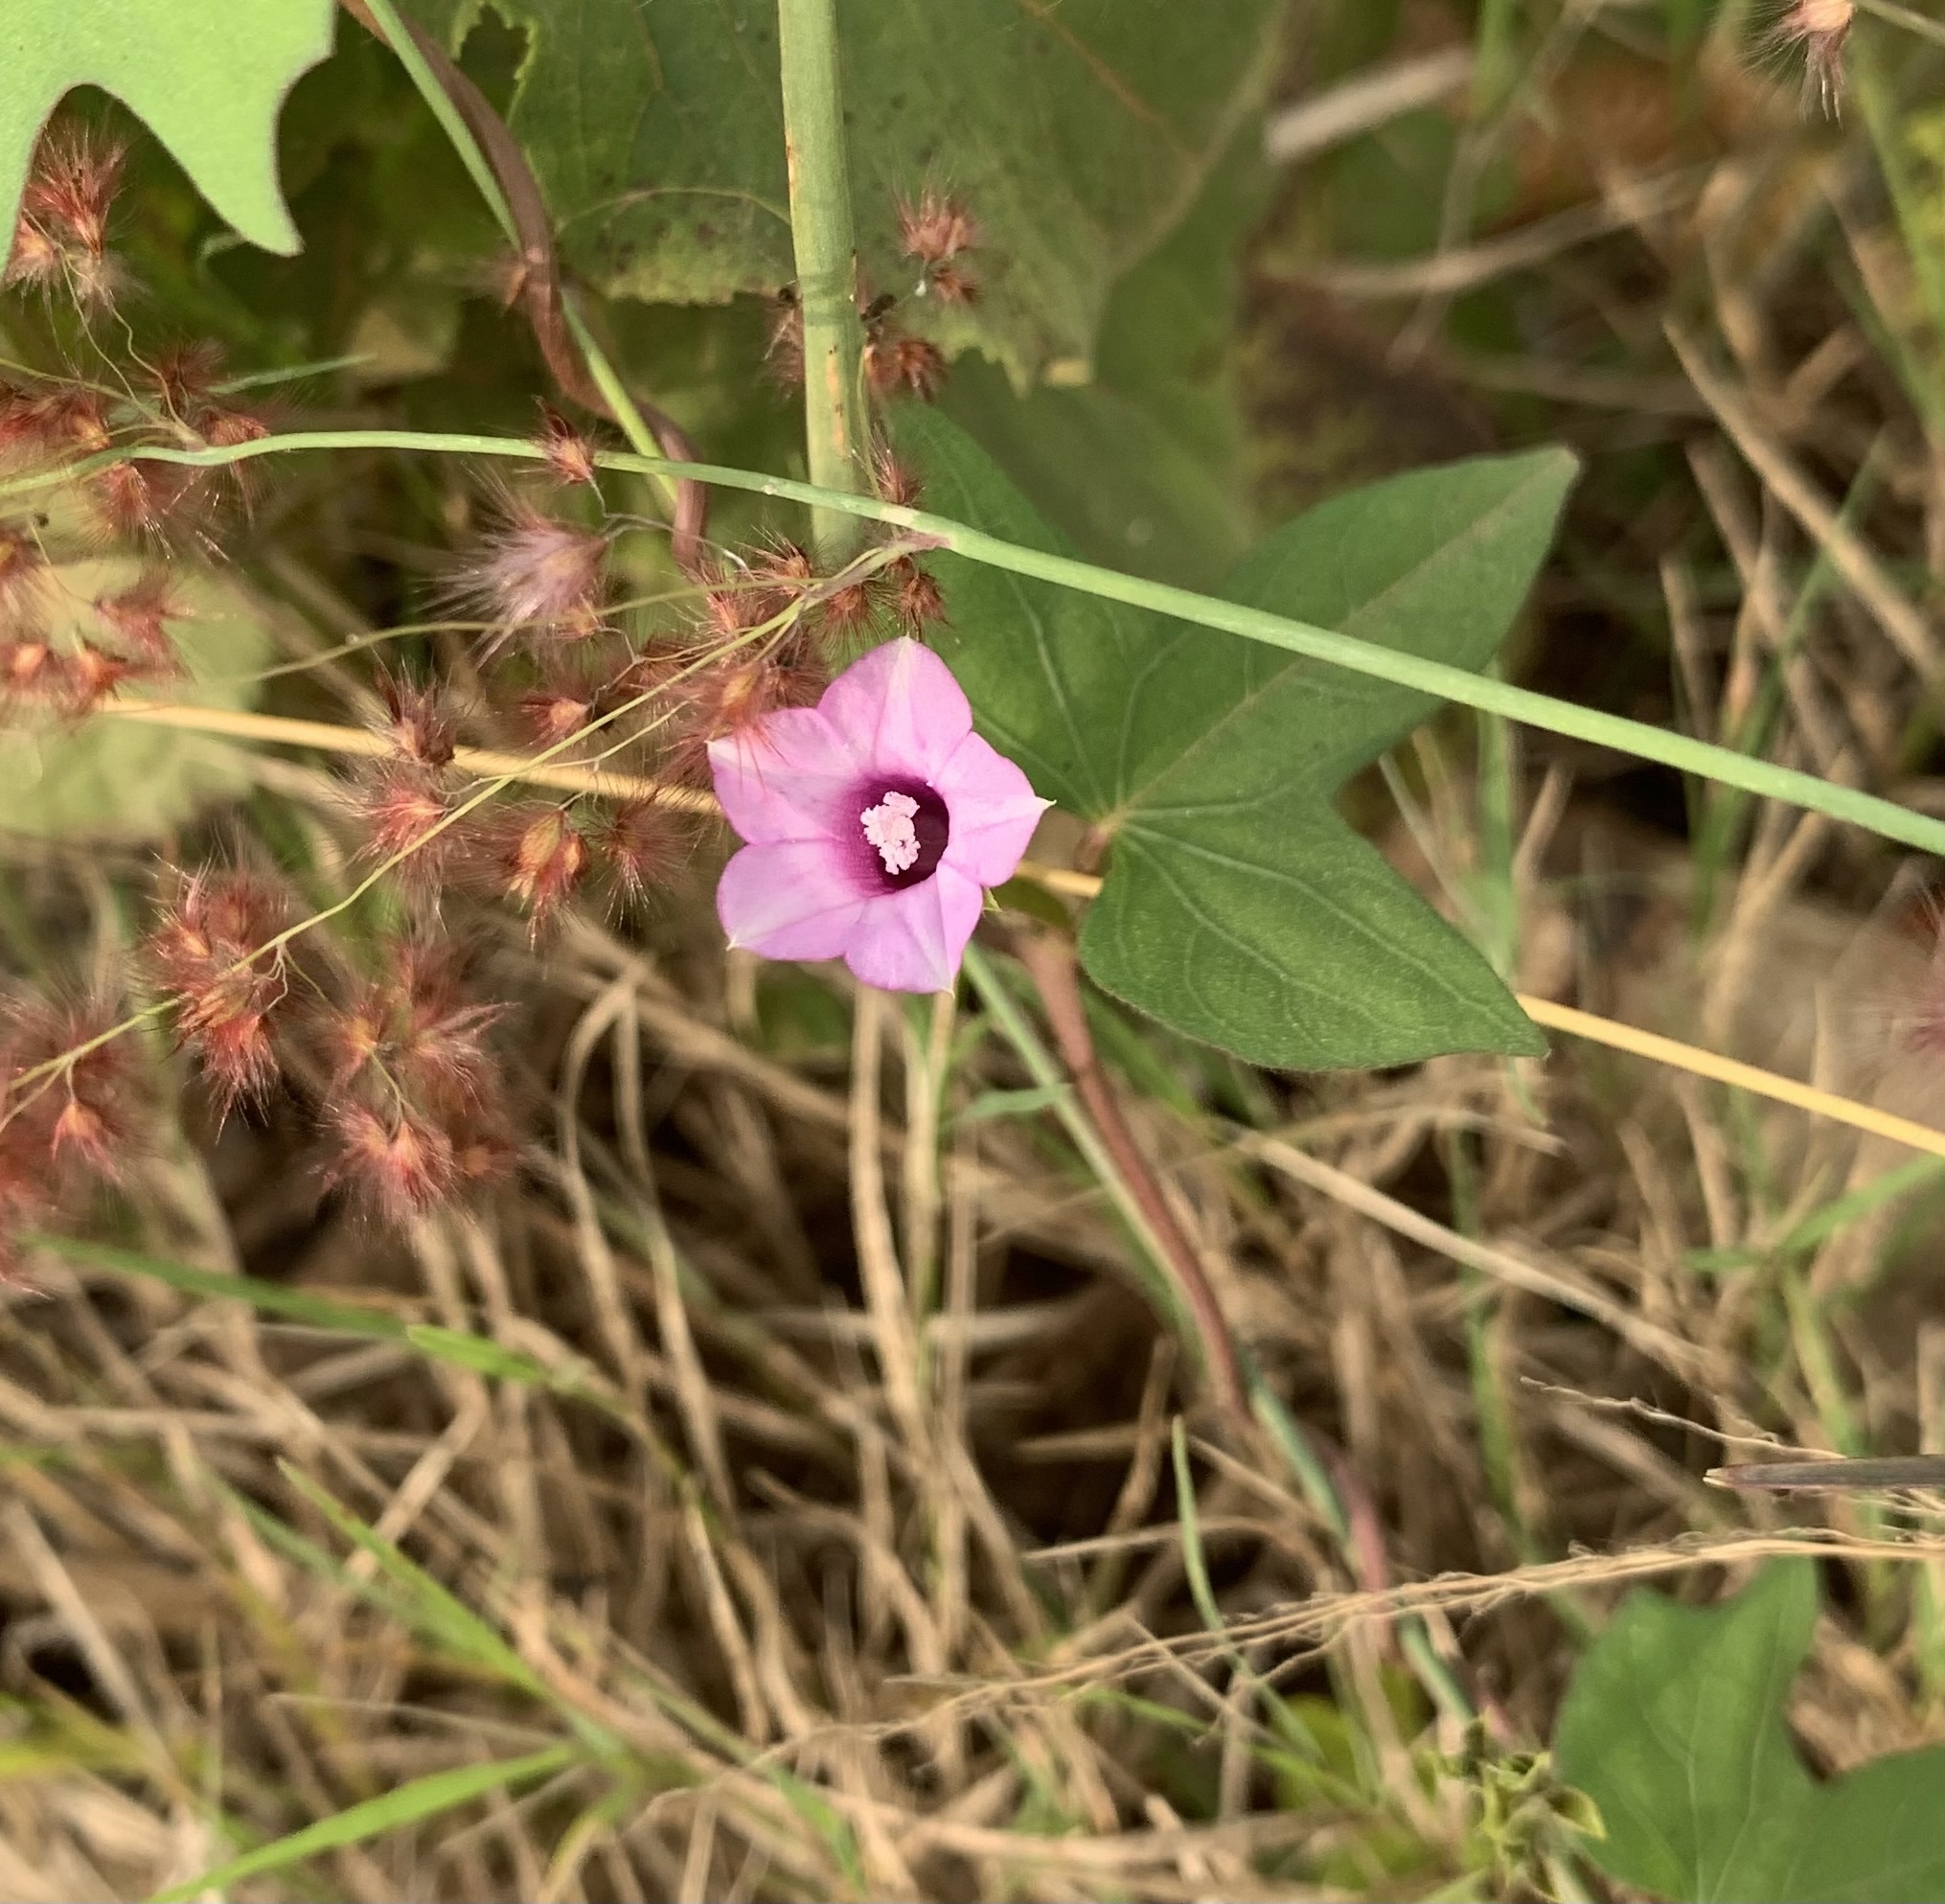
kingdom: Plantae
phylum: Tracheophyta
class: Magnoliopsida
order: Solanales
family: Convolvulaceae
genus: Ipomoea
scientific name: Ipomoea triloba
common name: Little-bell
